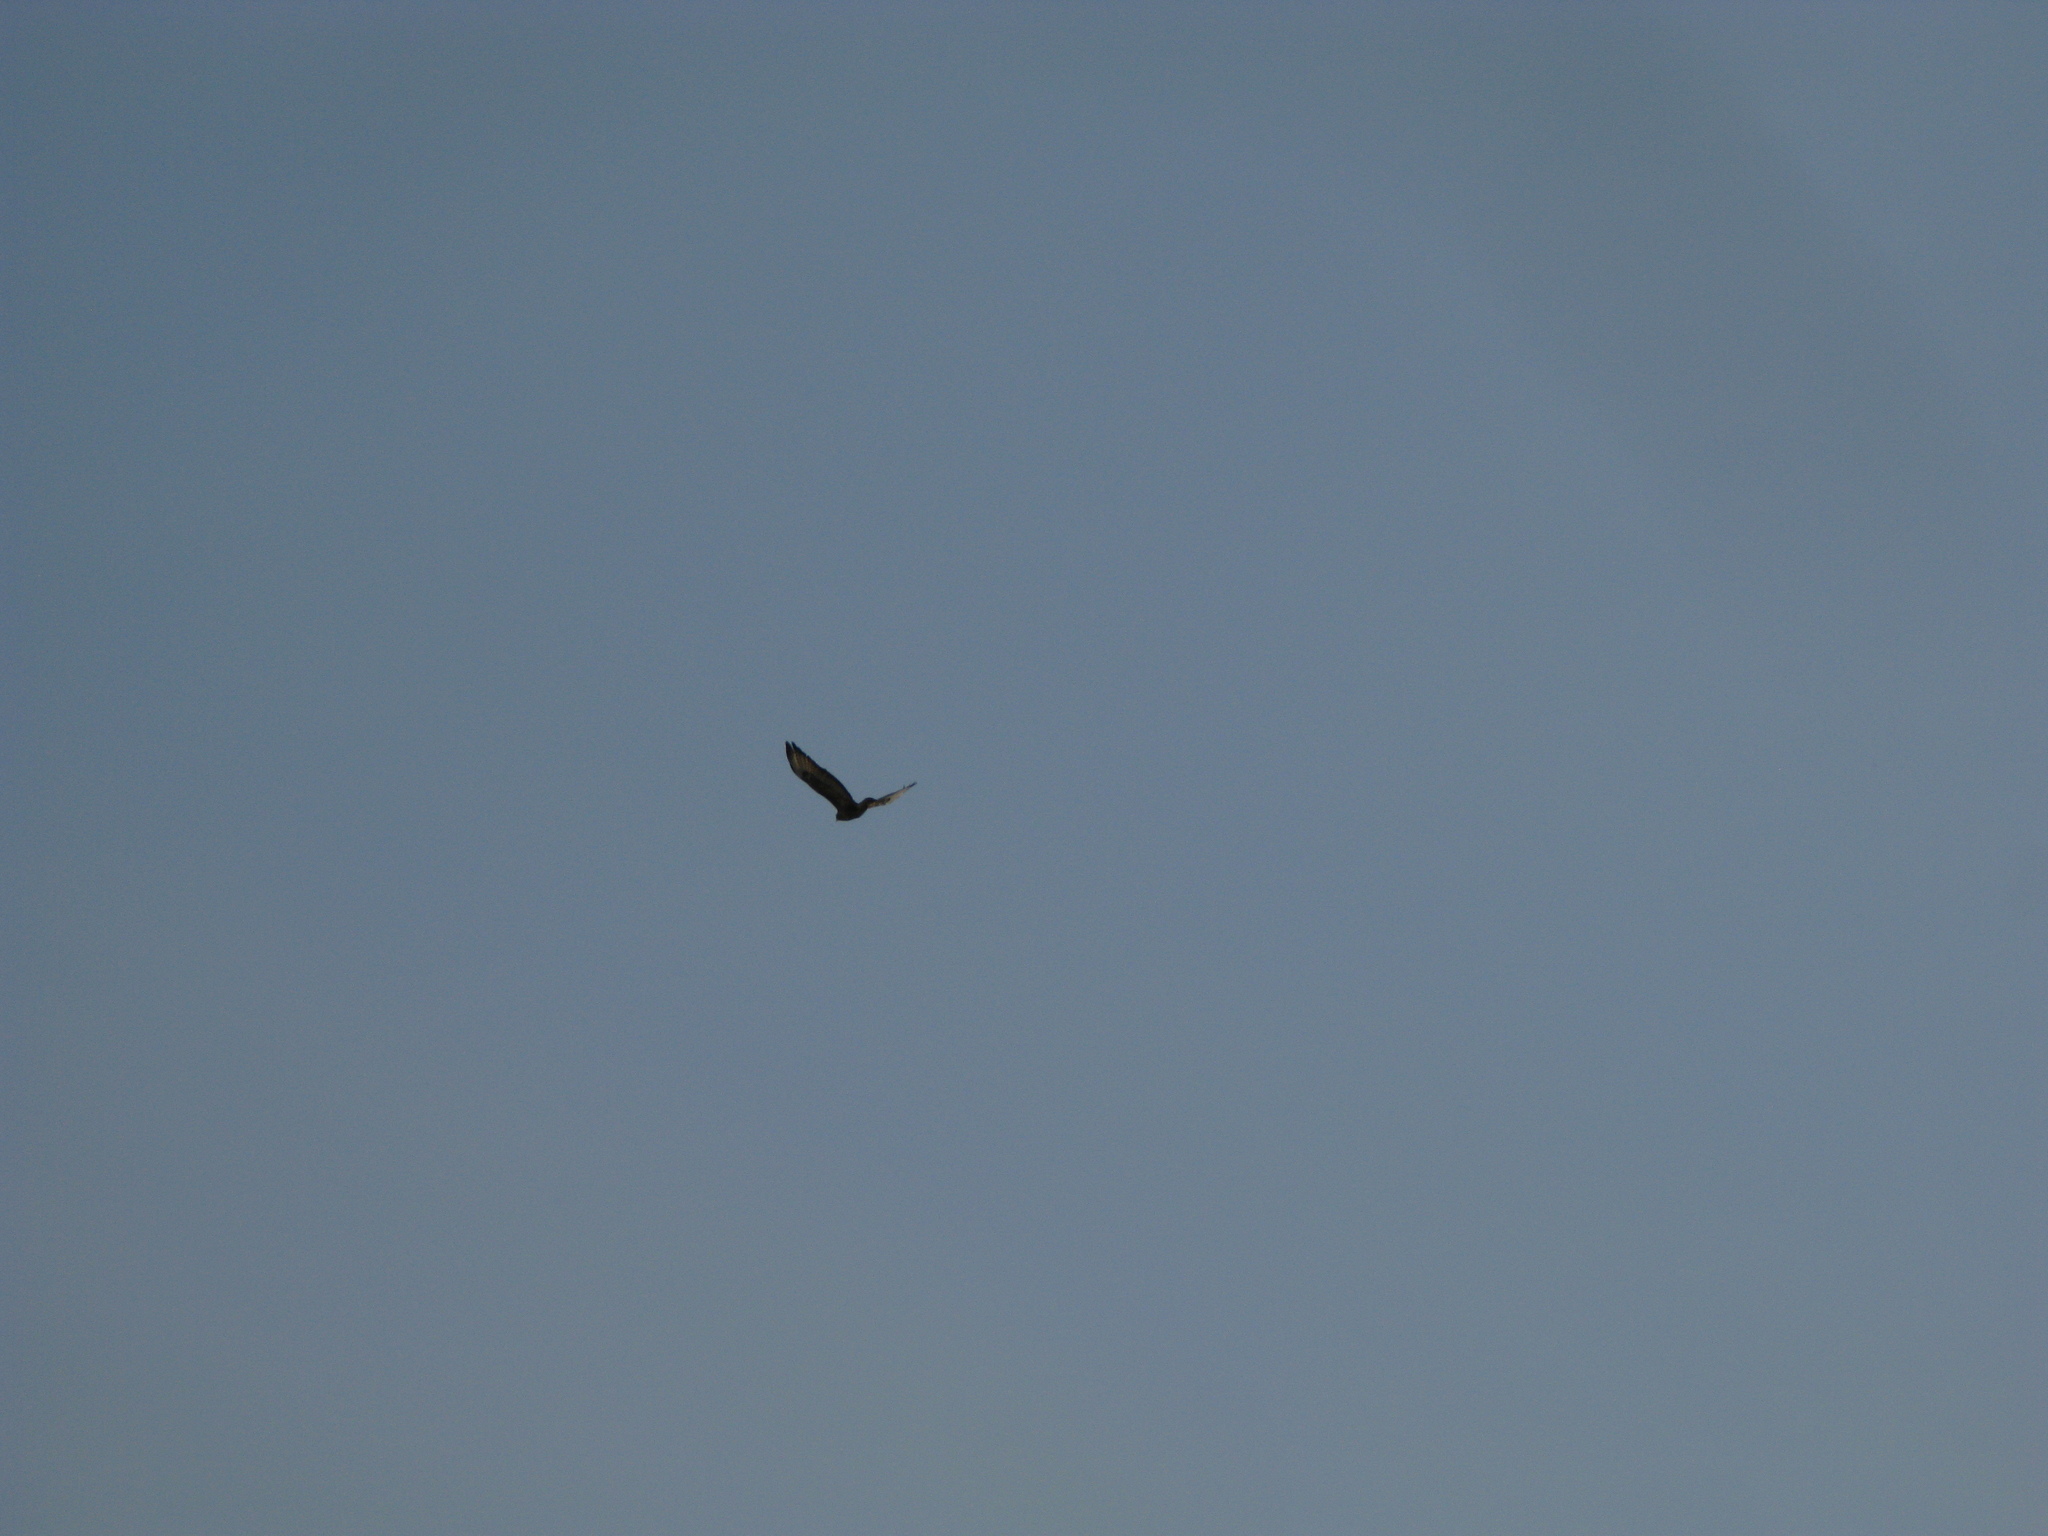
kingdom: Animalia
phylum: Chordata
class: Aves
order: Accipitriformes
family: Accipitridae
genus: Buteo
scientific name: Buteo buteo
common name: Common buzzard
